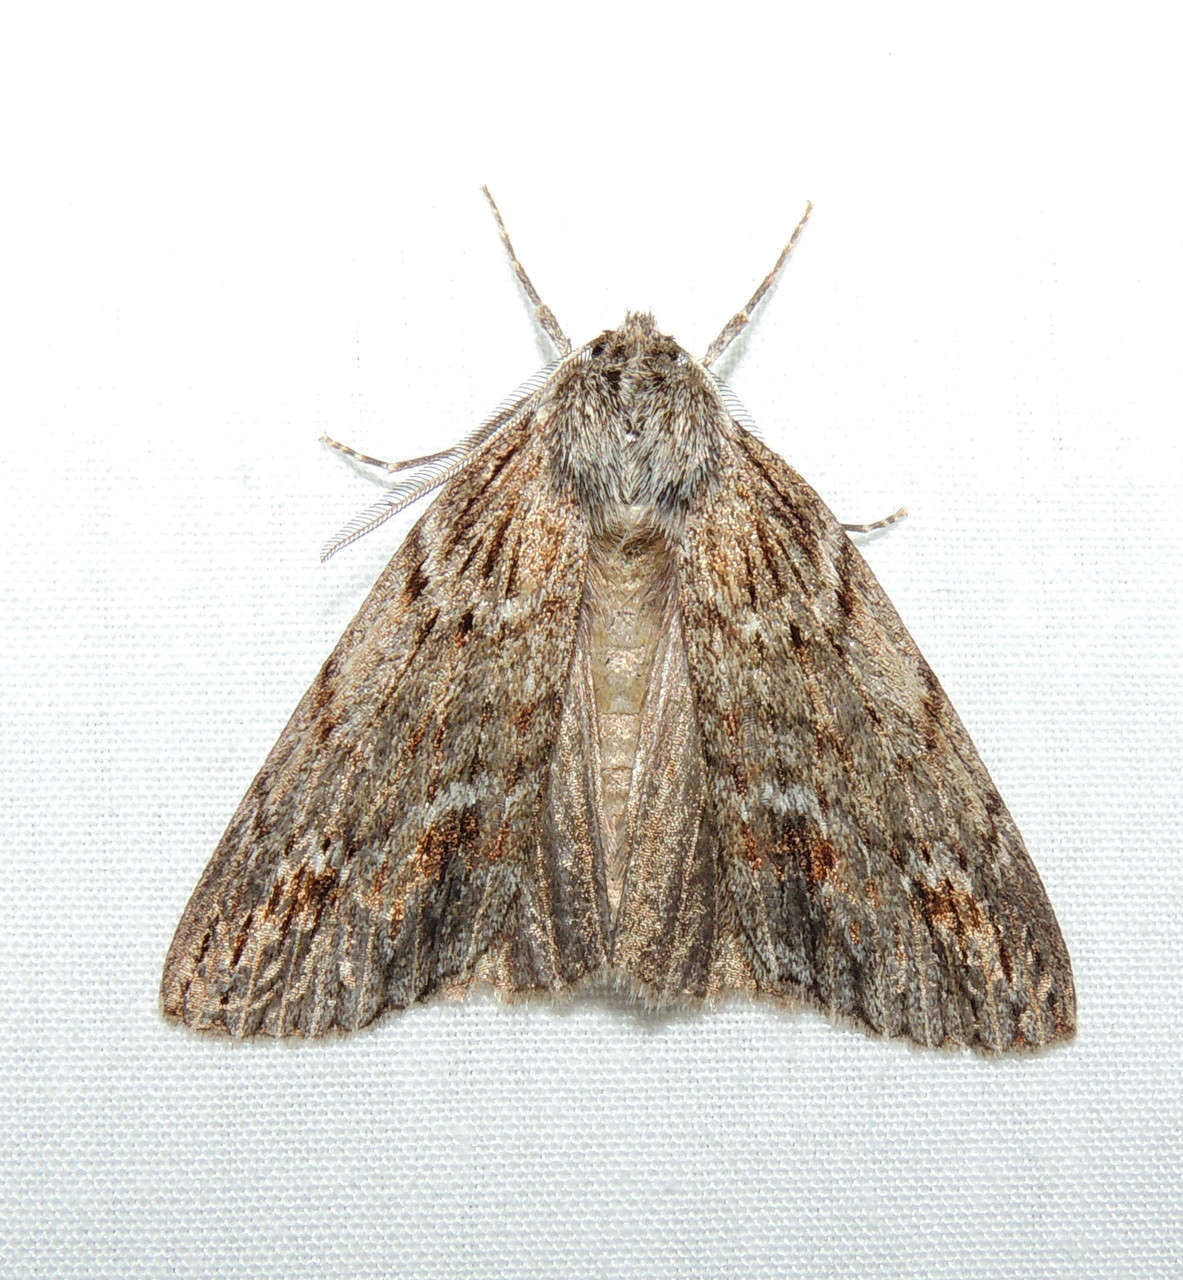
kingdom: Animalia
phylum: Arthropoda
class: Insecta
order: Lepidoptera
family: Geometridae
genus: Chlenias
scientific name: Chlenias banksiaria
